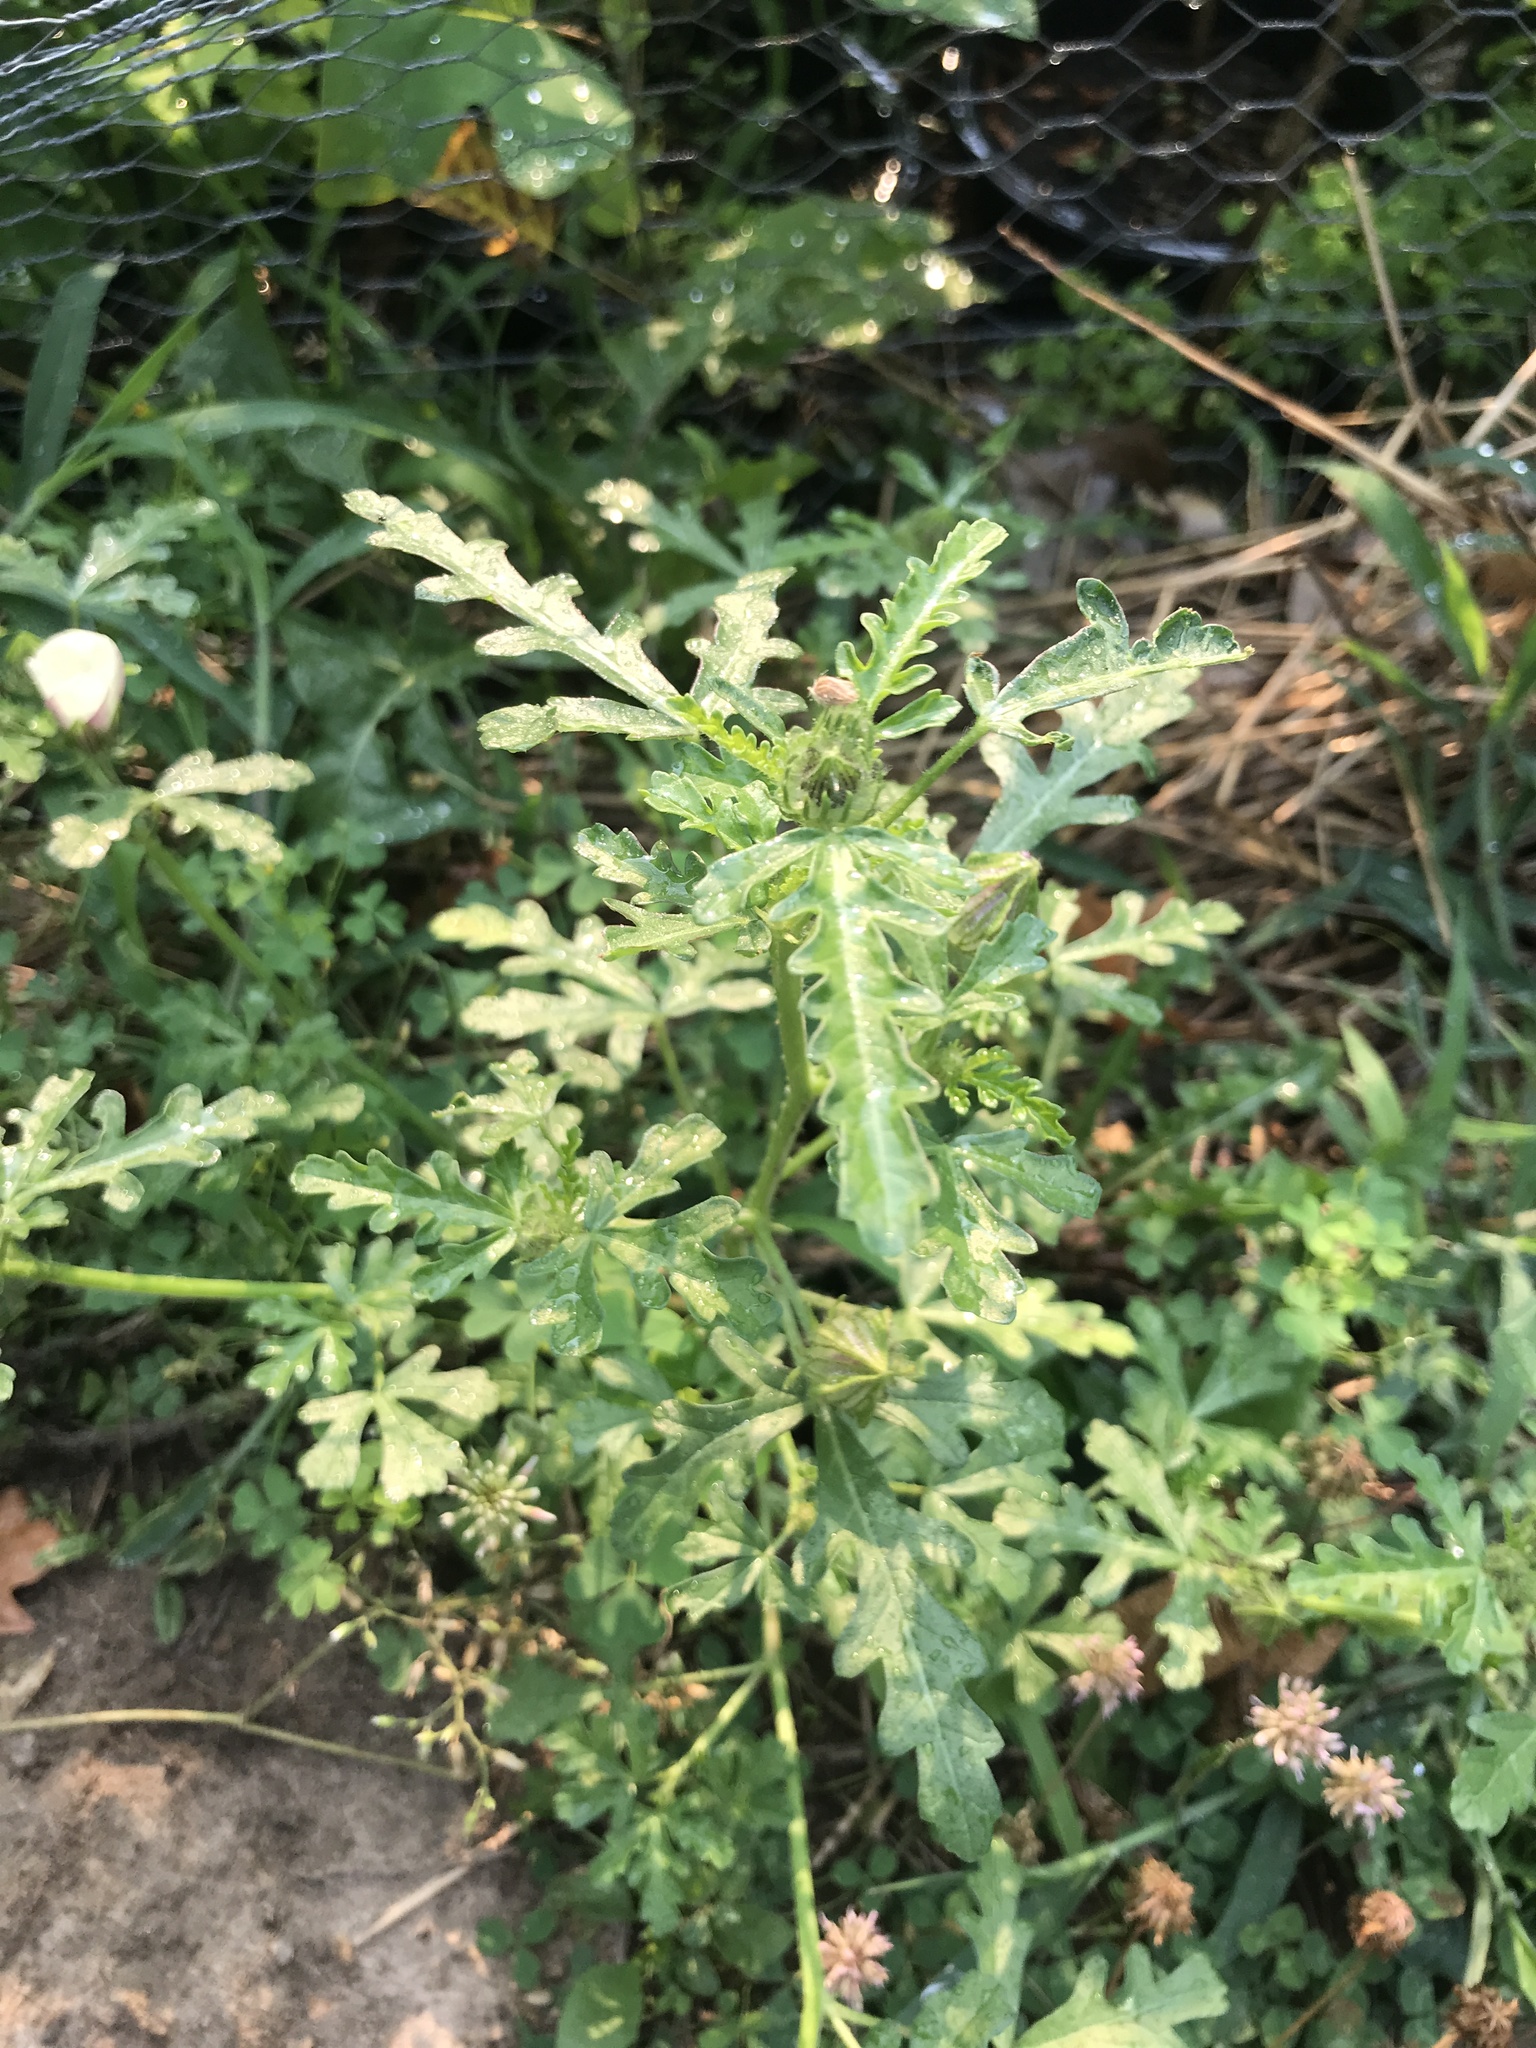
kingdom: Plantae
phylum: Tracheophyta
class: Magnoliopsida
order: Malvales
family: Malvaceae
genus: Hibiscus
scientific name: Hibiscus trionum
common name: Bladder ketmia
